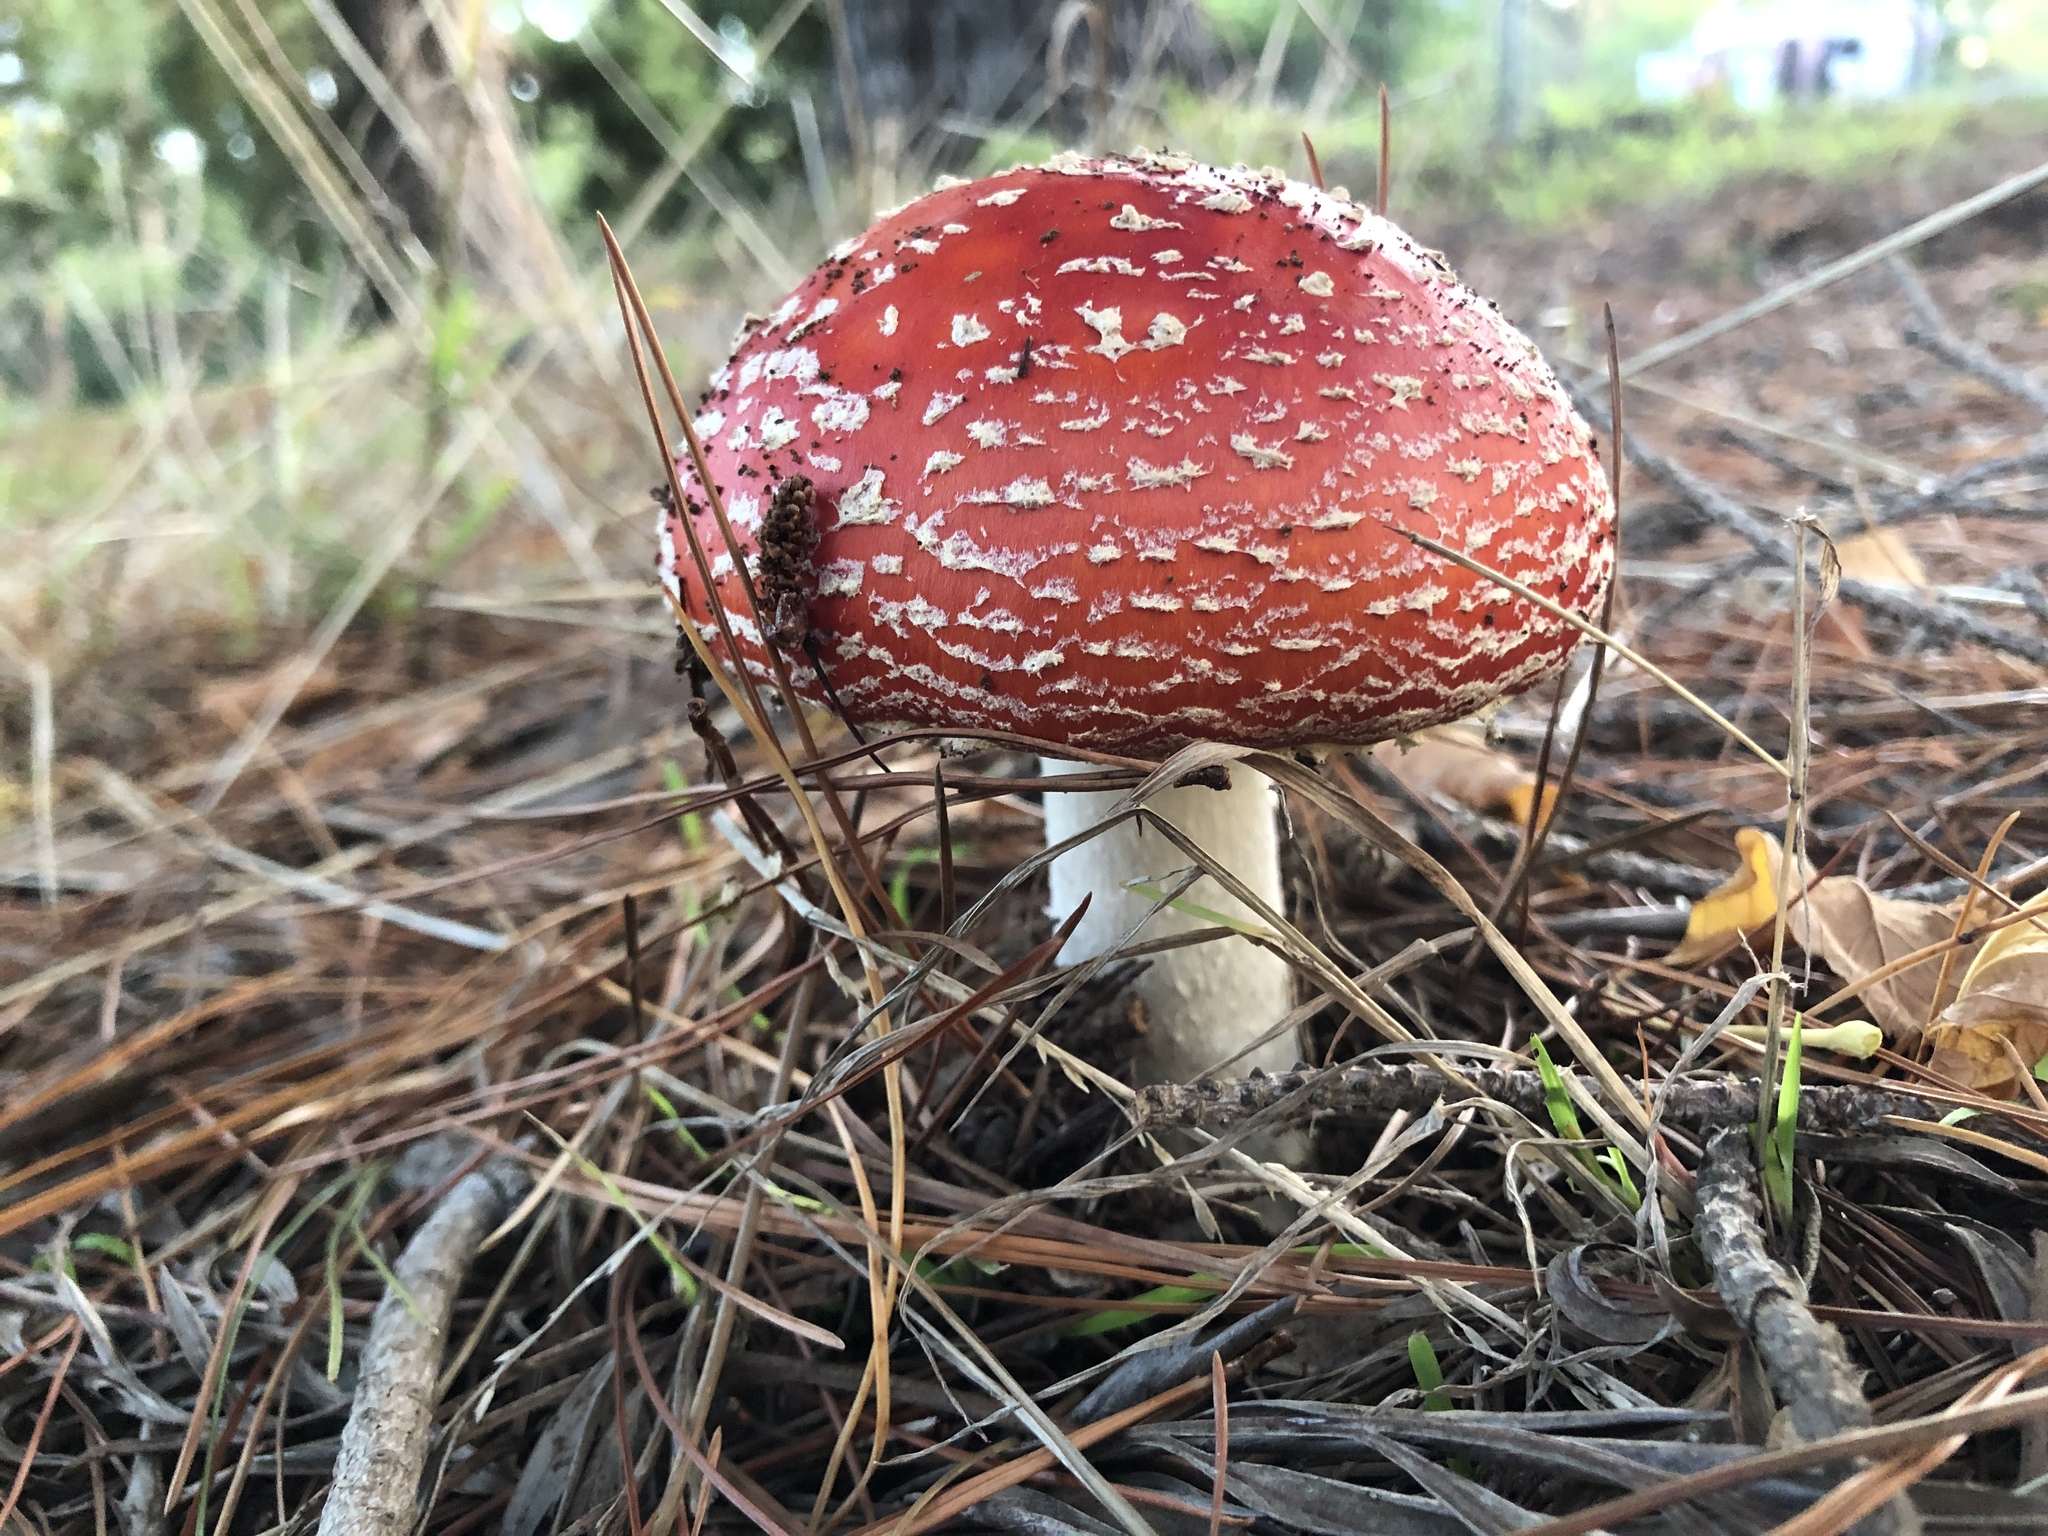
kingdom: Fungi
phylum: Basidiomycota
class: Agaricomycetes
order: Agaricales
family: Amanitaceae
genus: Amanita
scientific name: Amanita muscaria
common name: Fly agaric
